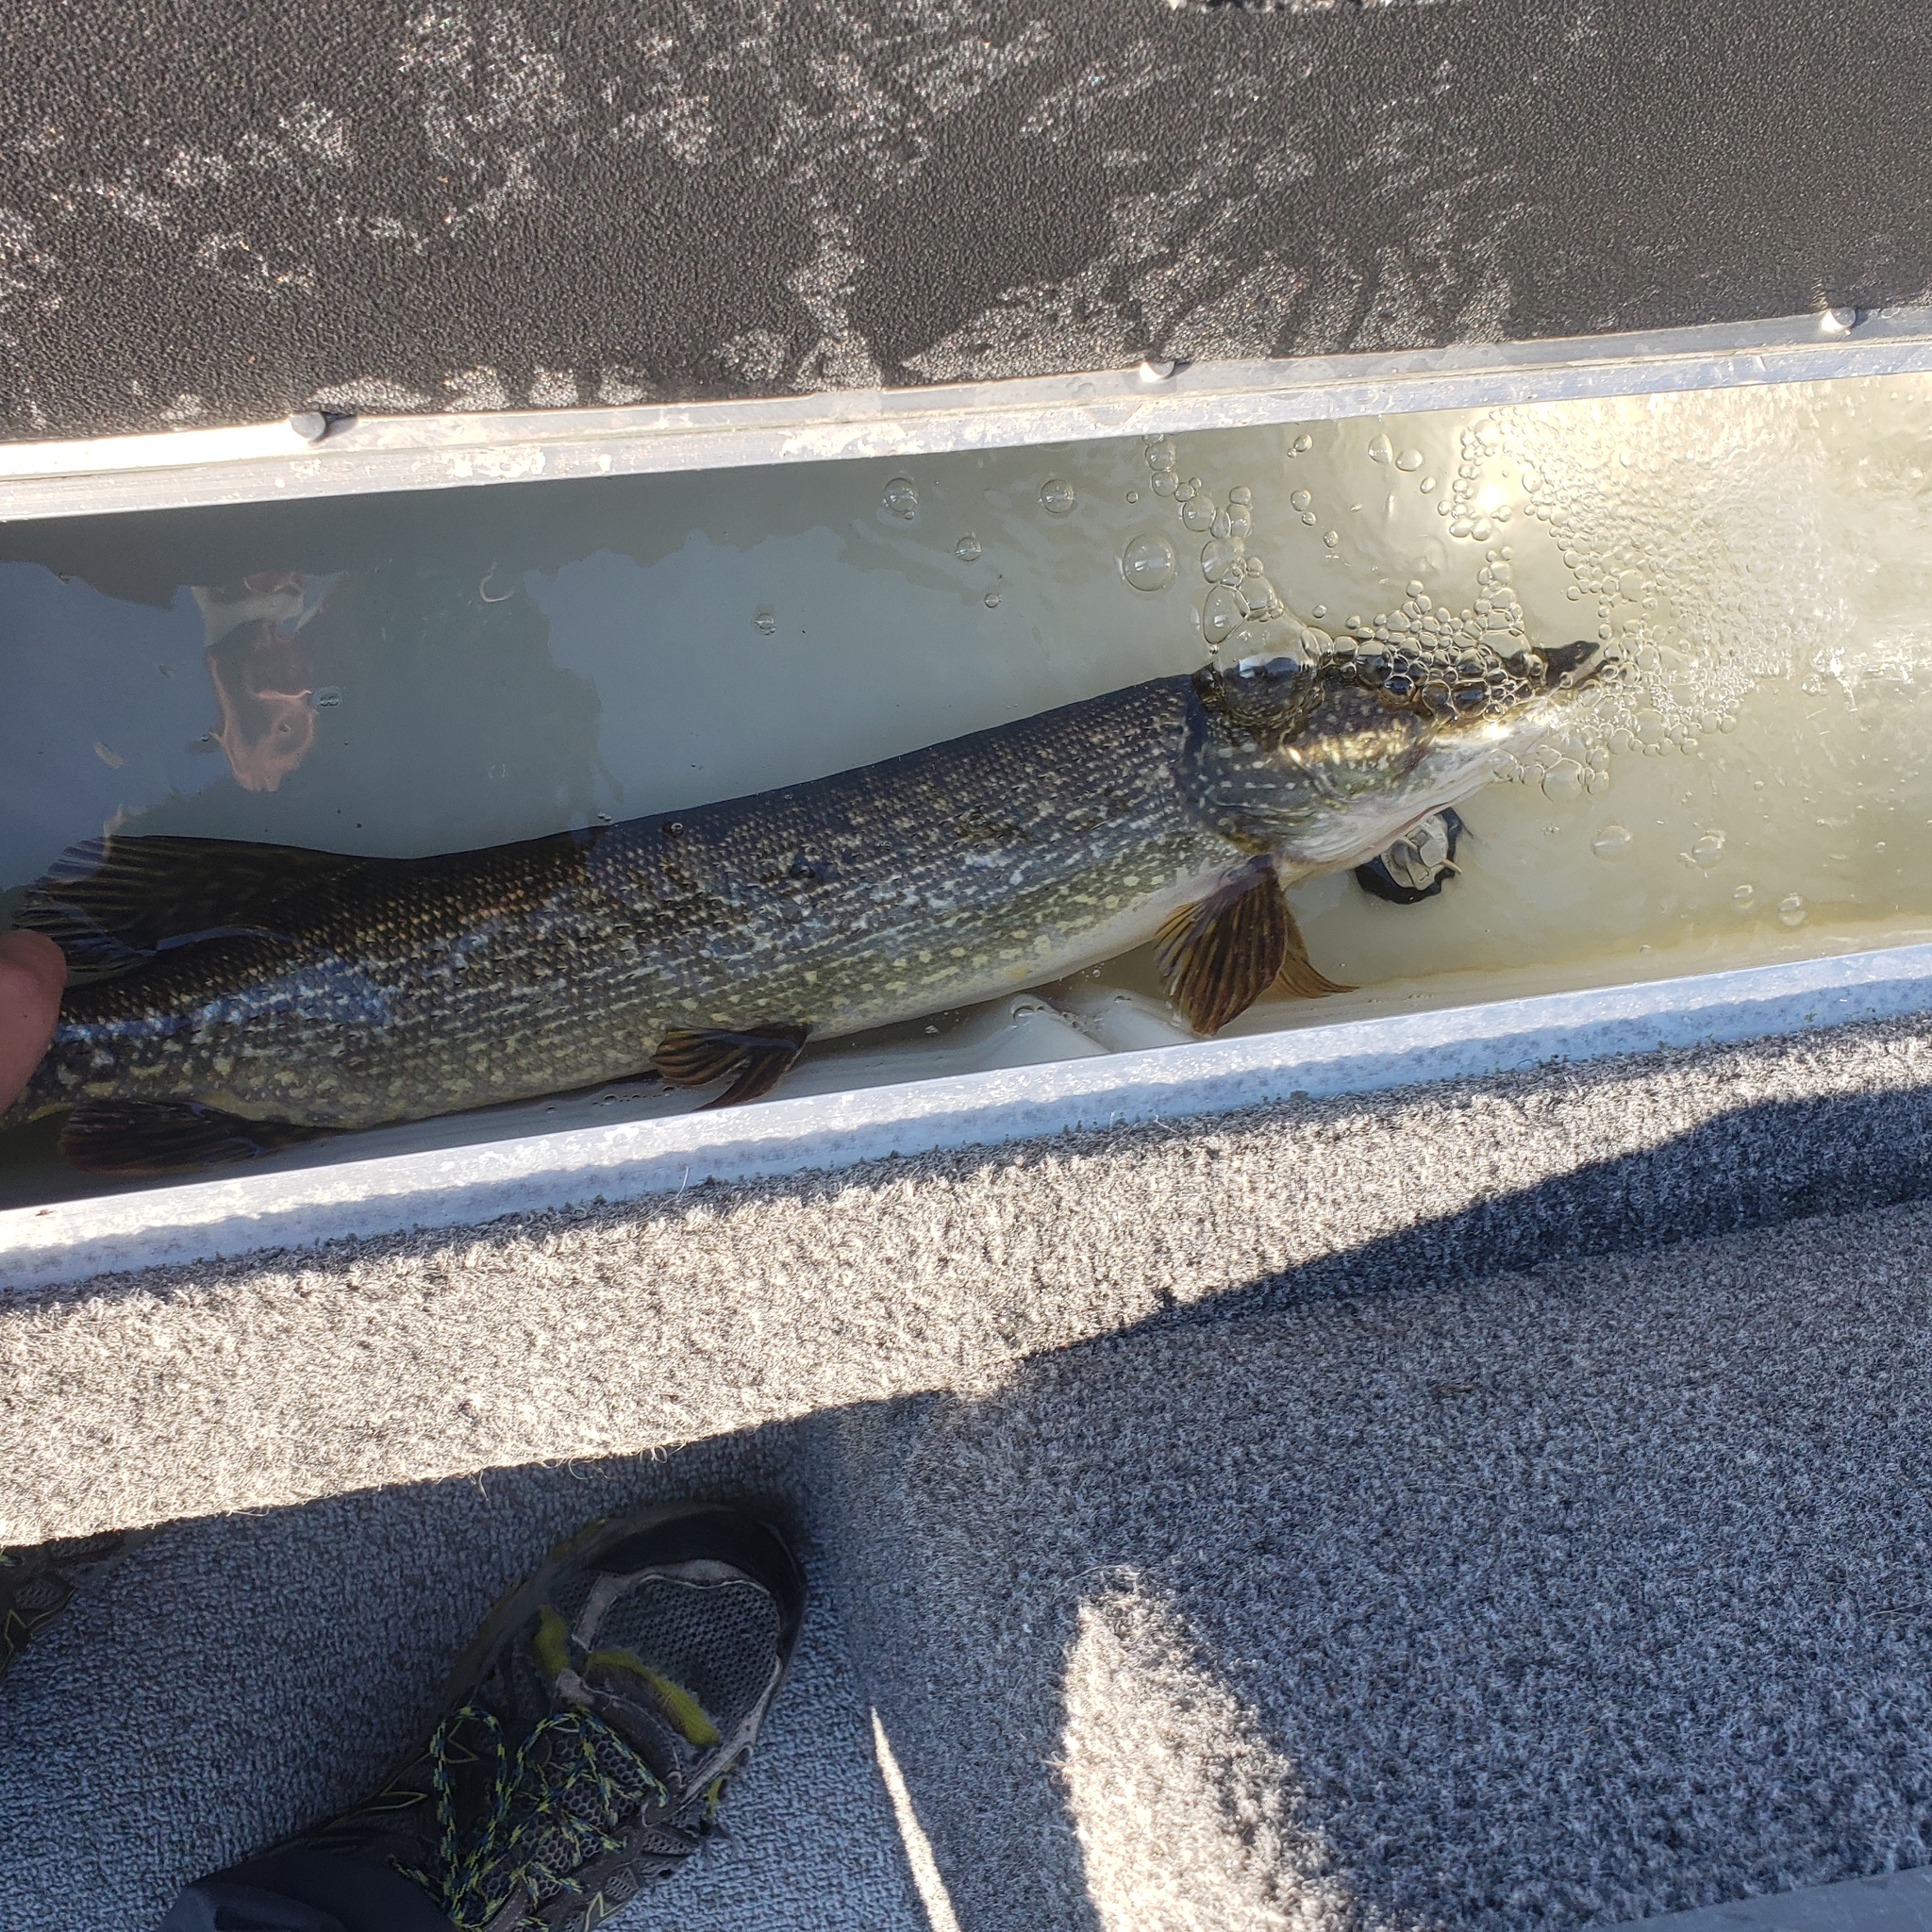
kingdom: Animalia
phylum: Chordata
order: Esociformes
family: Esocidae
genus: Esox
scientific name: Esox lucius
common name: Northern pike
